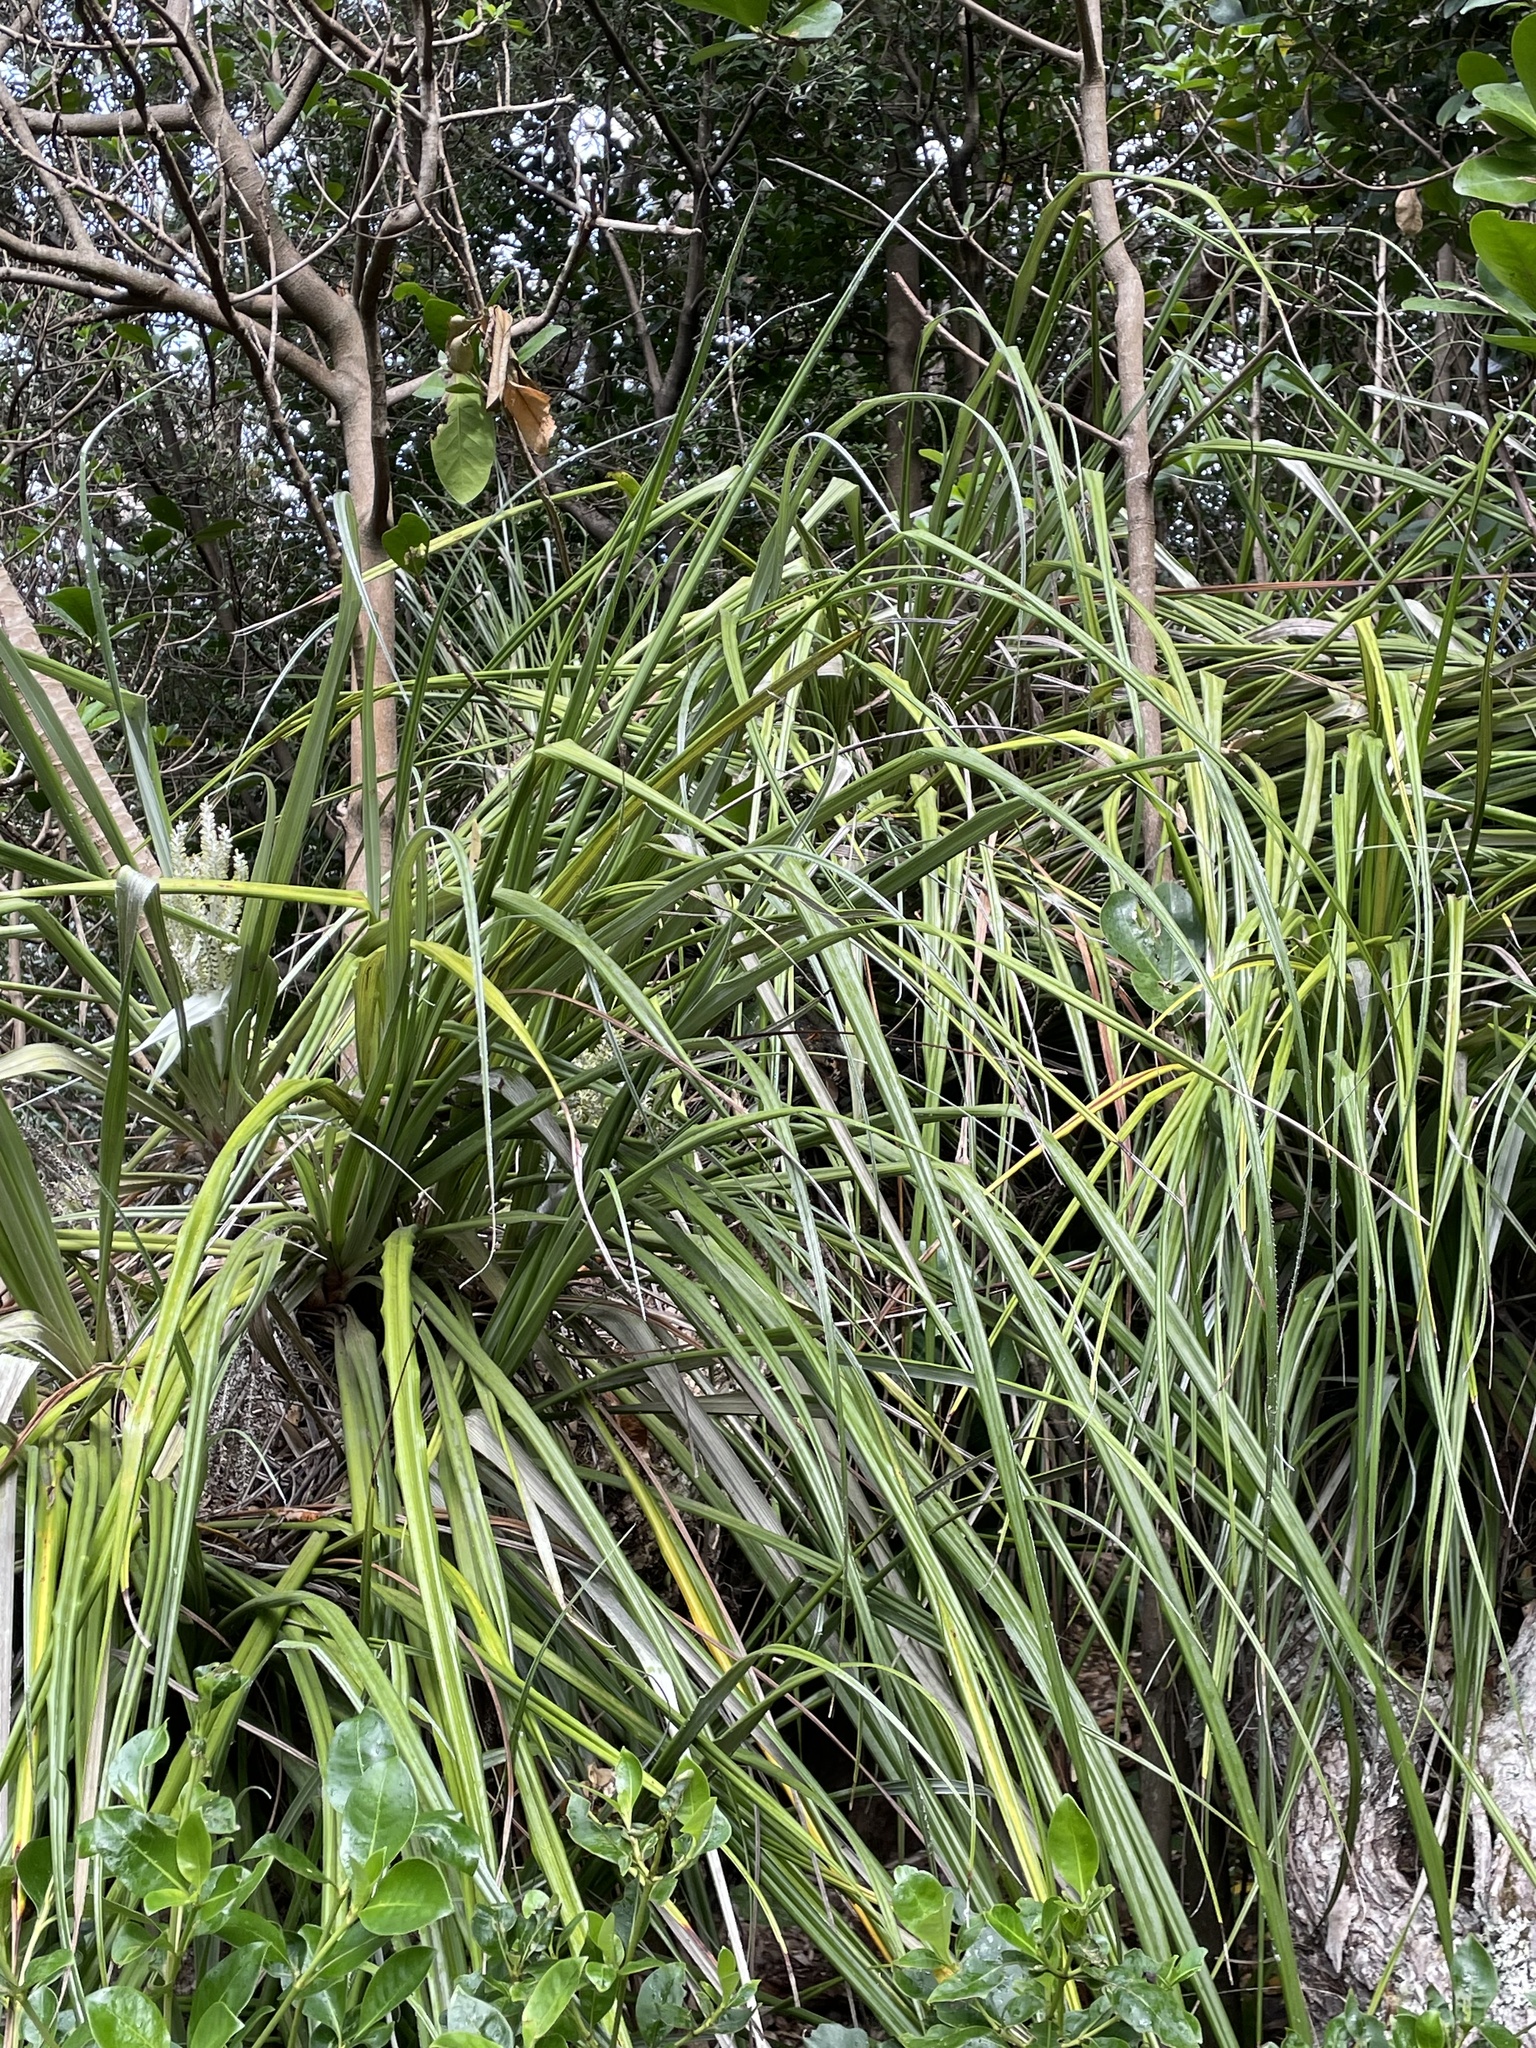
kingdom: Plantae
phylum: Tracheophyta
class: Liliopsida
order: Asparagales
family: Asteliaceae
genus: Astelia
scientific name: Astelia banksii
